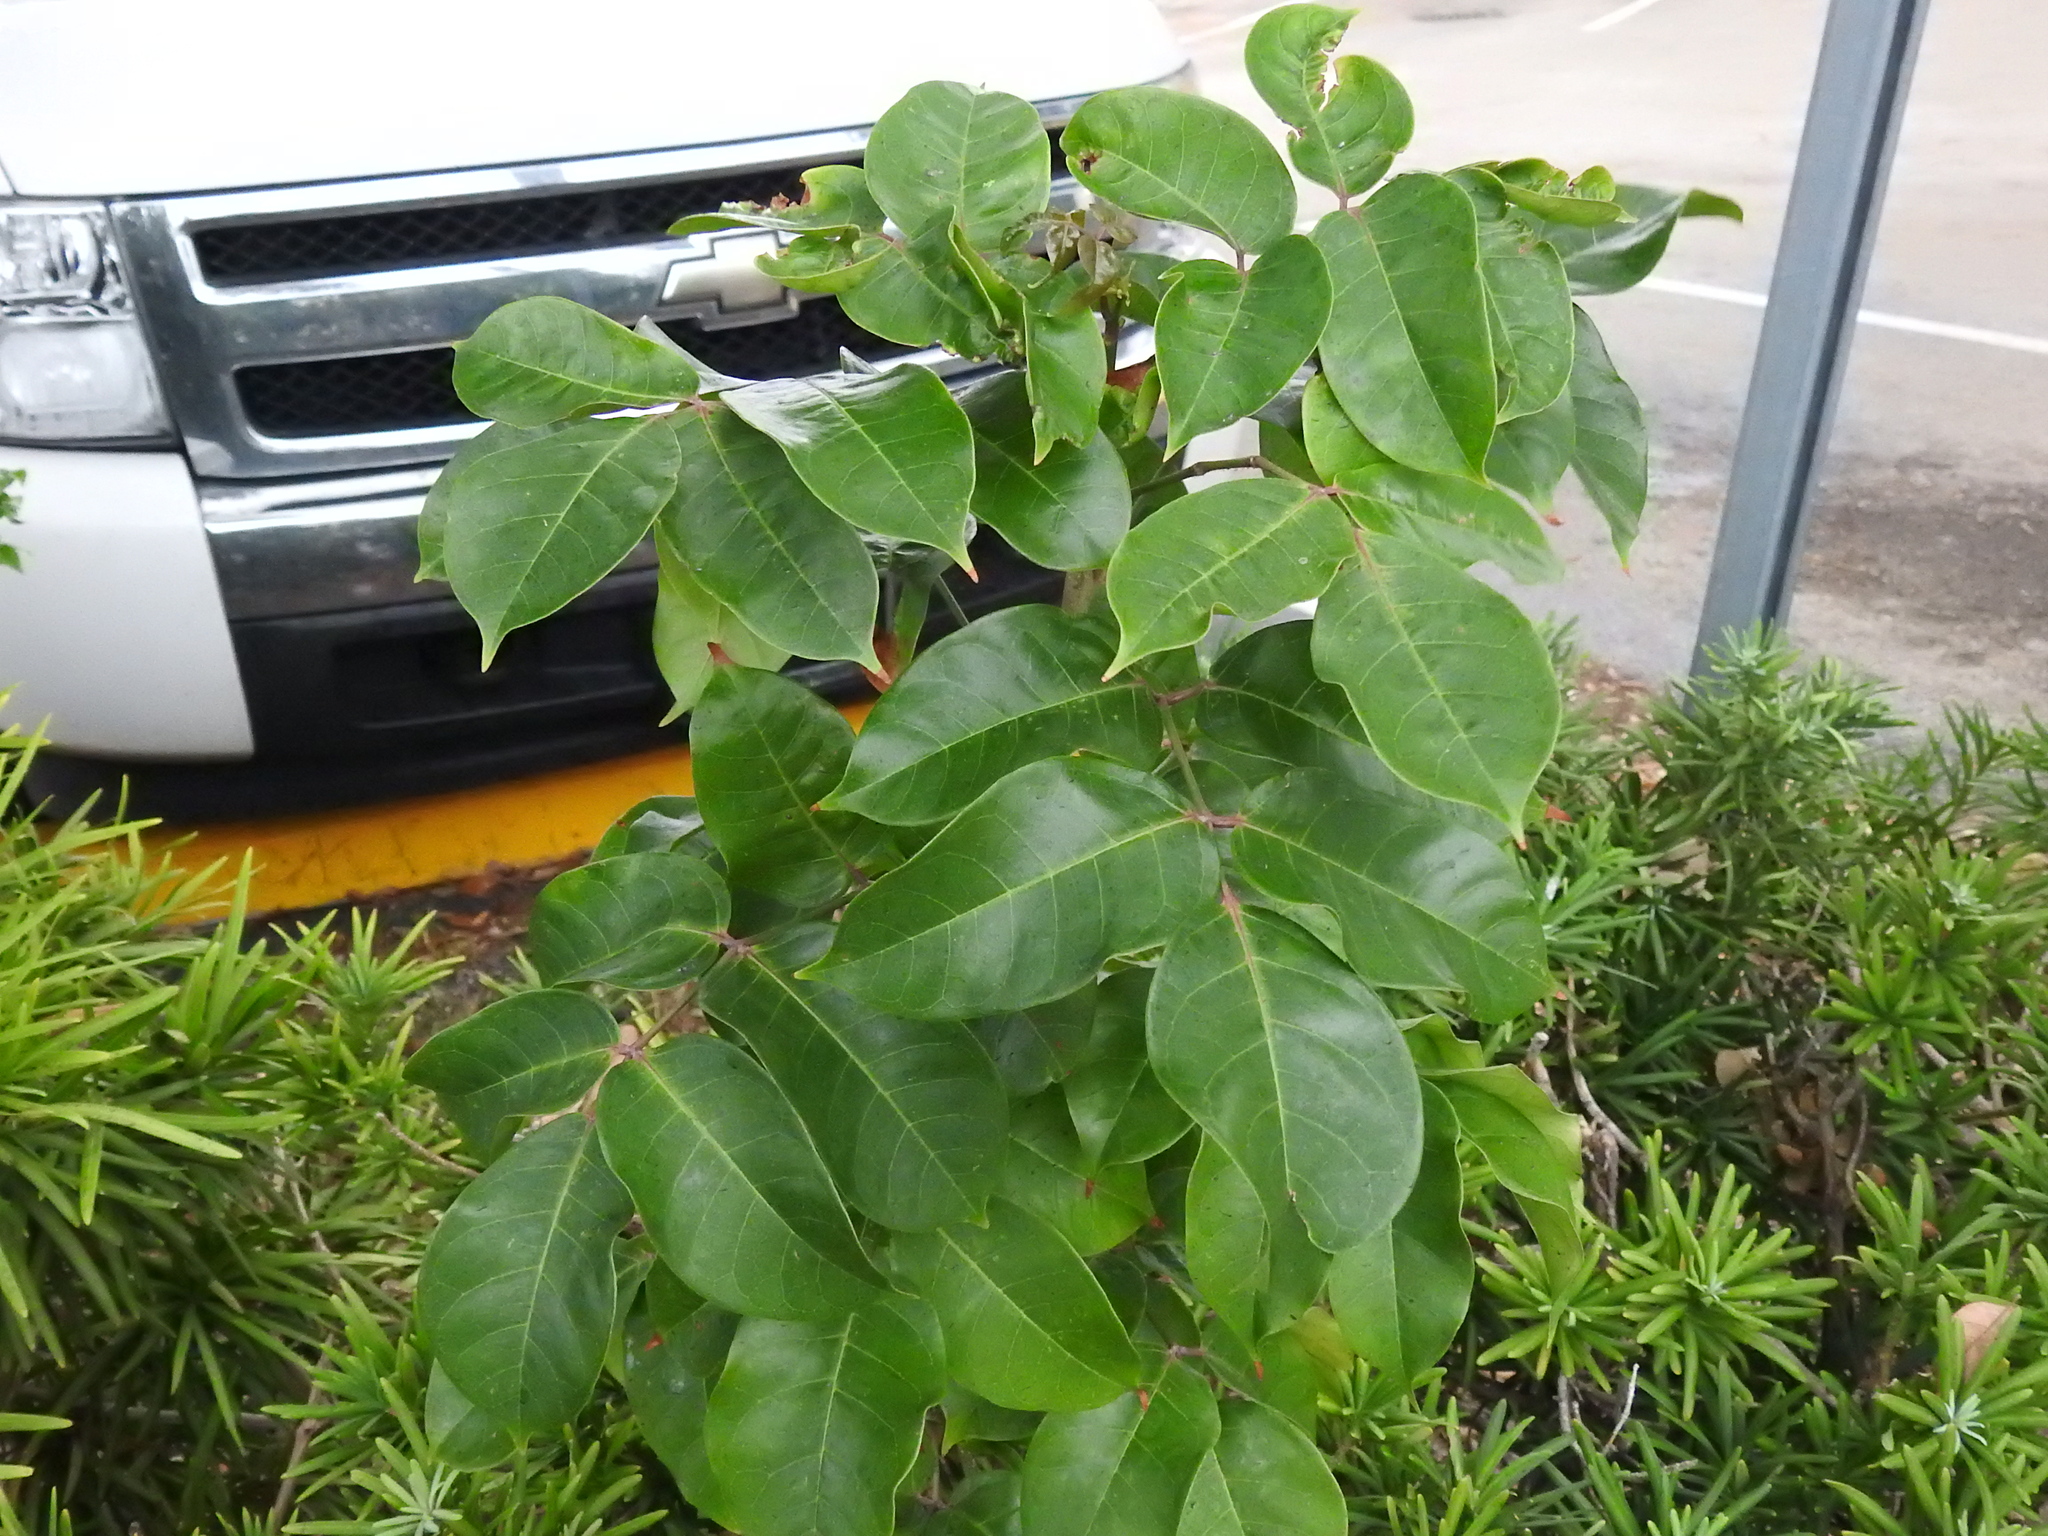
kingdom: Plantae
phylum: Tracheophyta
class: Magnoliopsida
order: Sapindales
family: Burseraceae
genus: Bursera
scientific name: Bursera simaruba
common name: Turpentine tree
